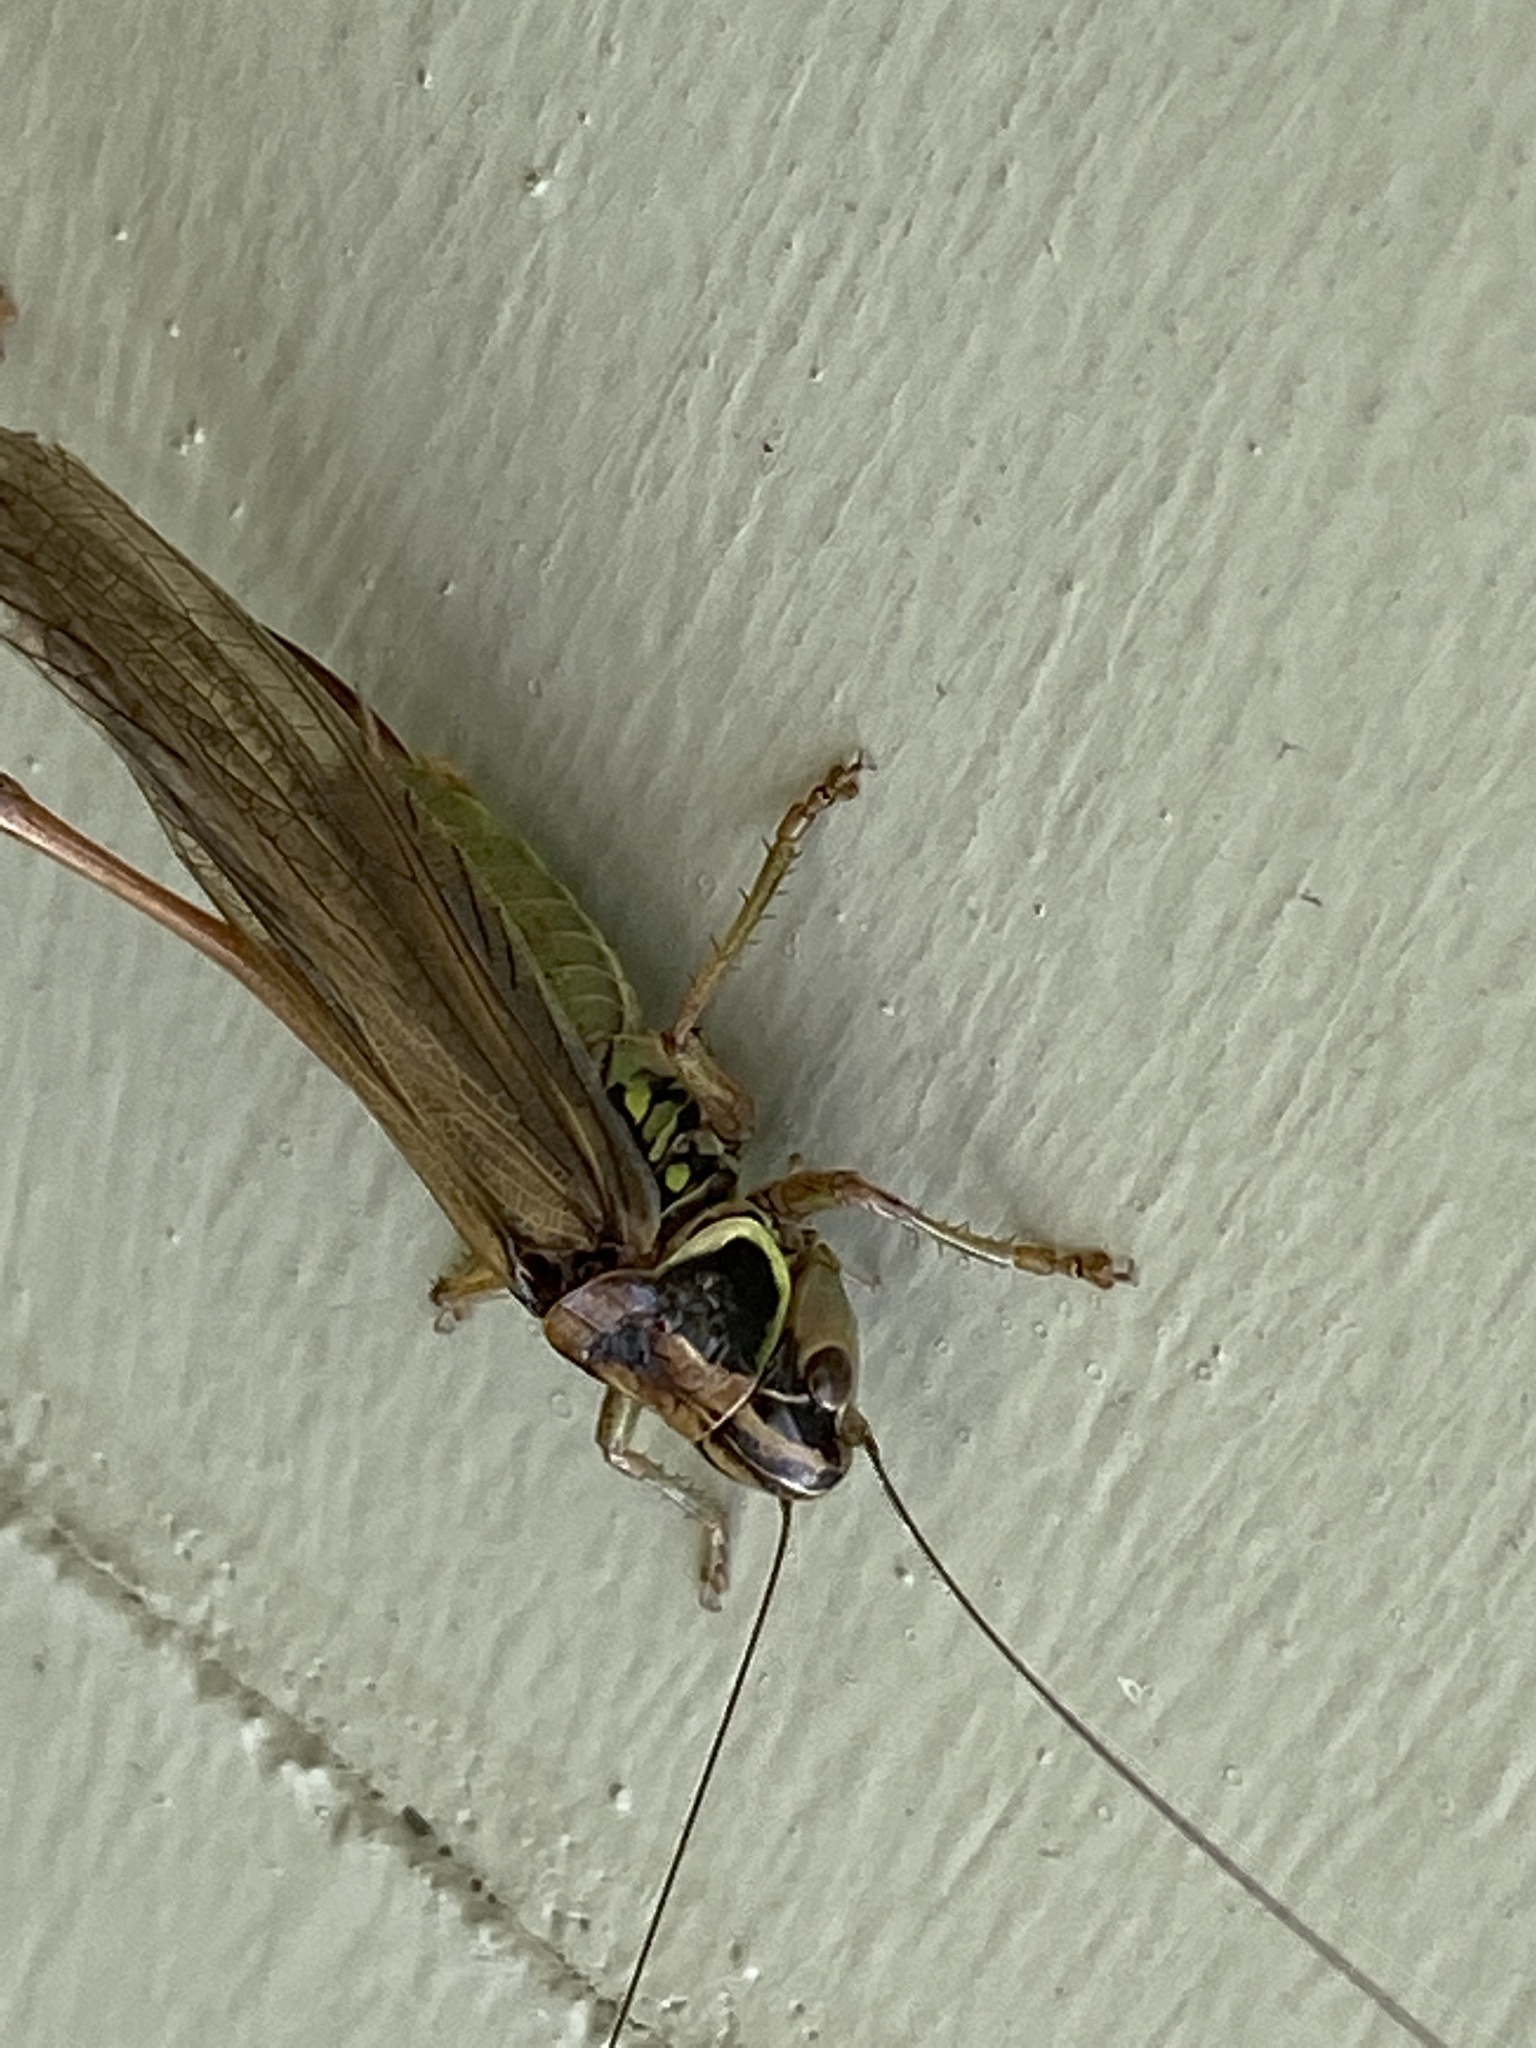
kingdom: Animalia
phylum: Arthropoda
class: Insecta
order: Orthoptera
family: Tettigoniidae
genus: Roeseliana
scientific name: Roeseliana roeselii
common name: Roesel's bush cricket
